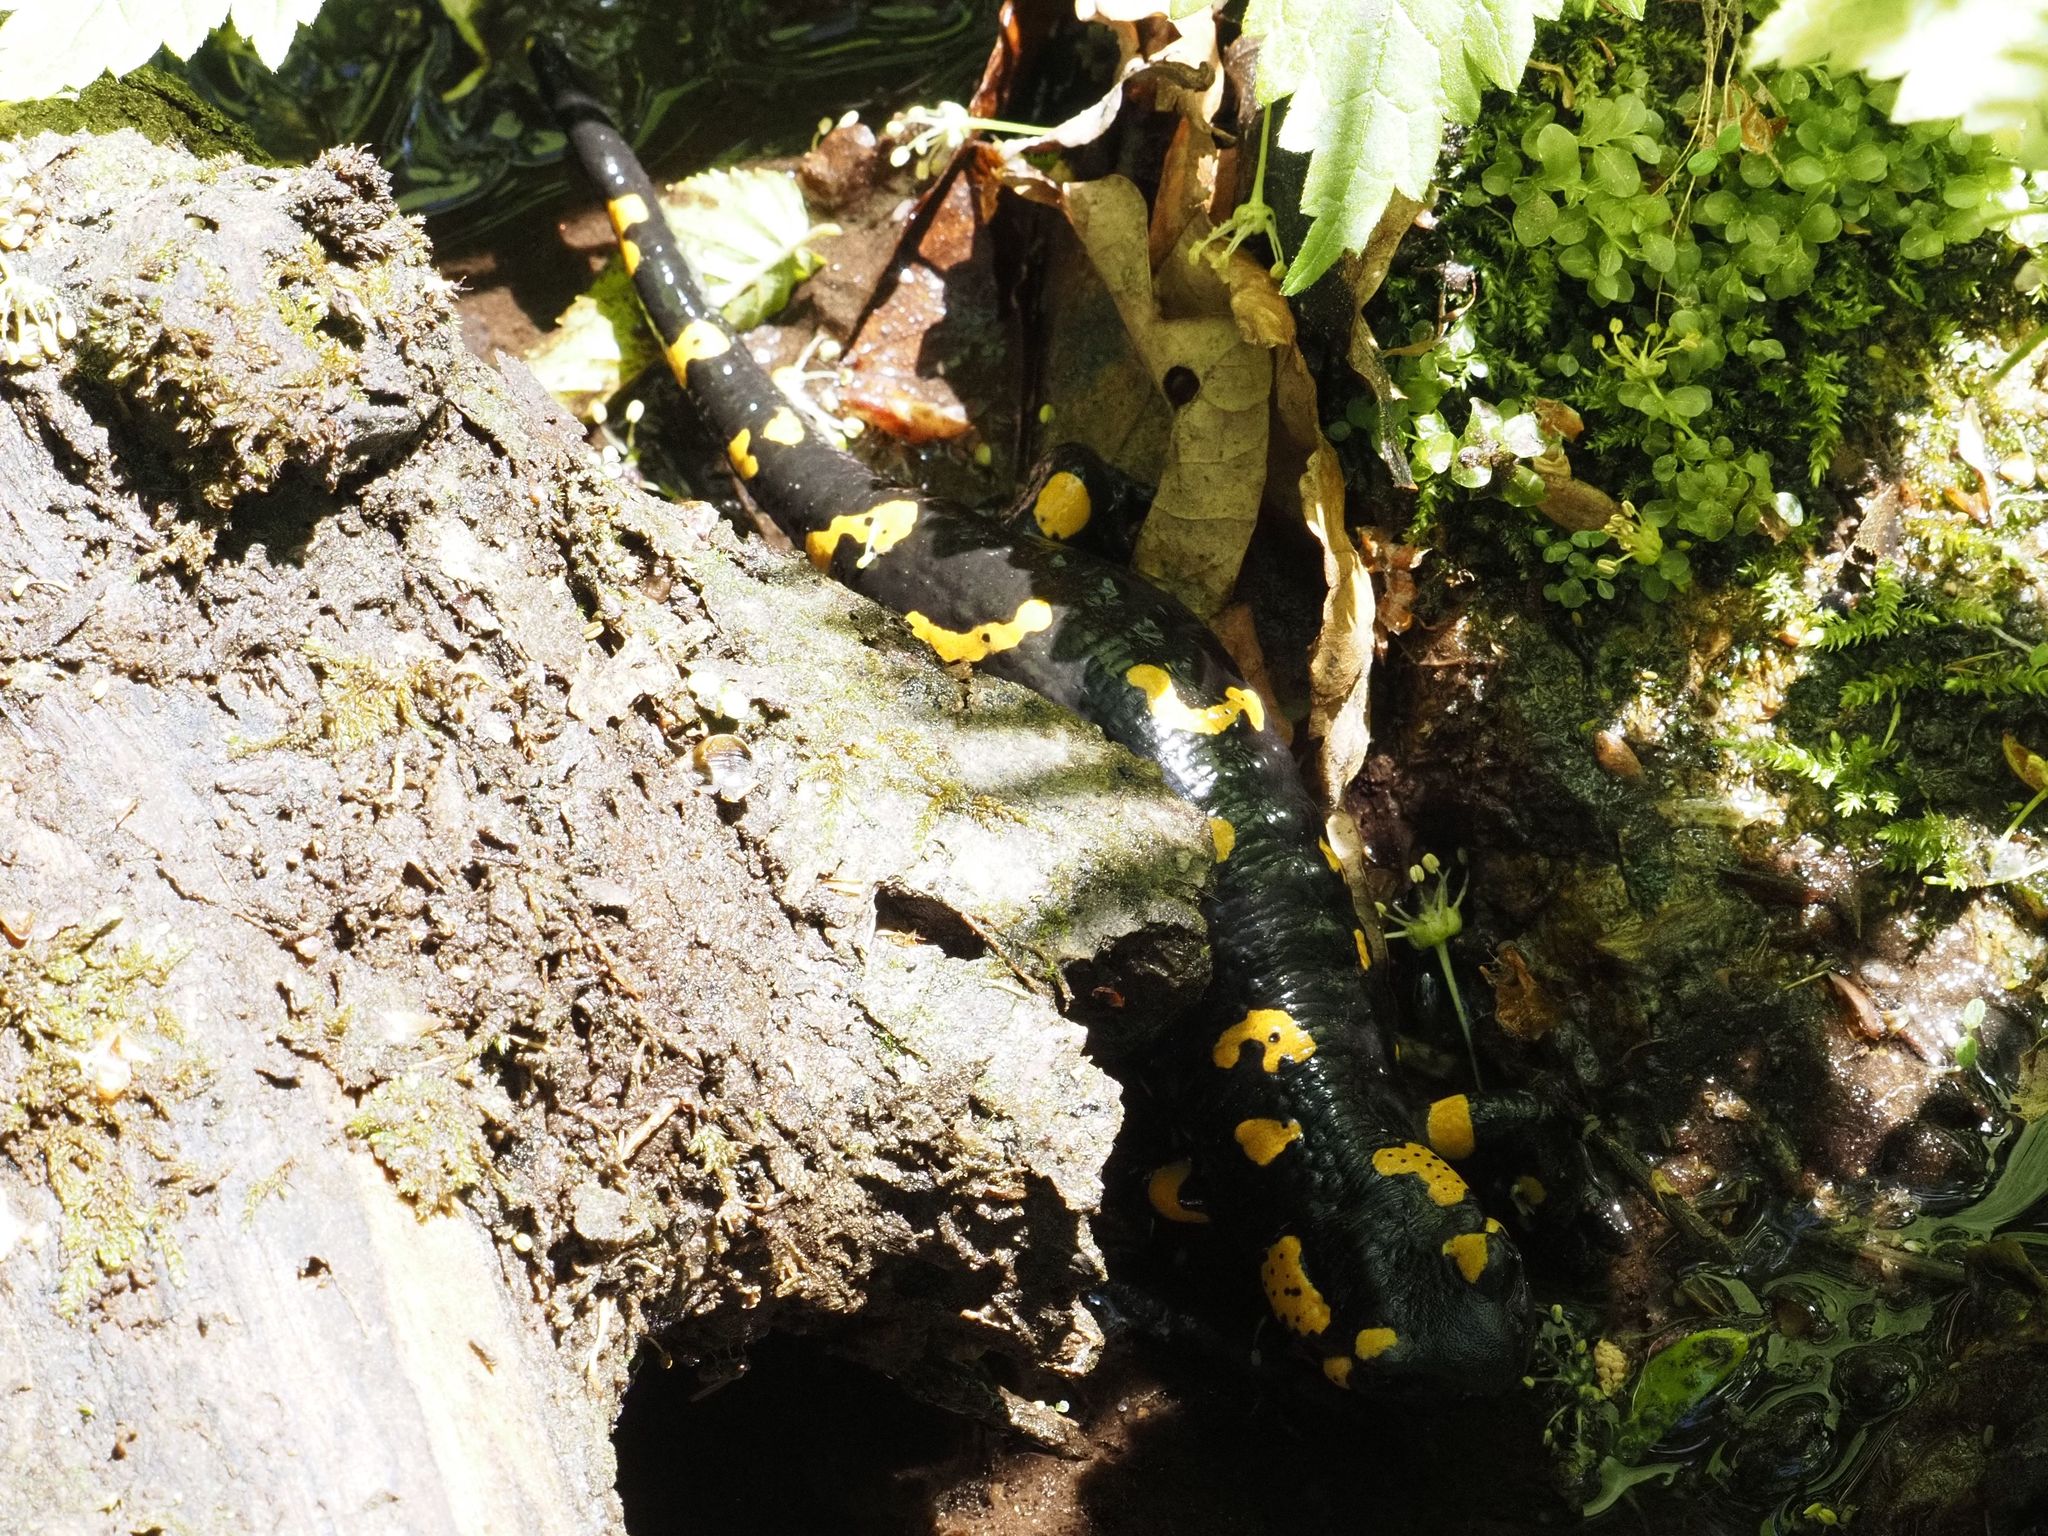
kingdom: Animalia
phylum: Chordata
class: Amphibia
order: Caudata
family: Salamandridae
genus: Salamandra
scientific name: Salamandra salamandra
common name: Fire salamander
